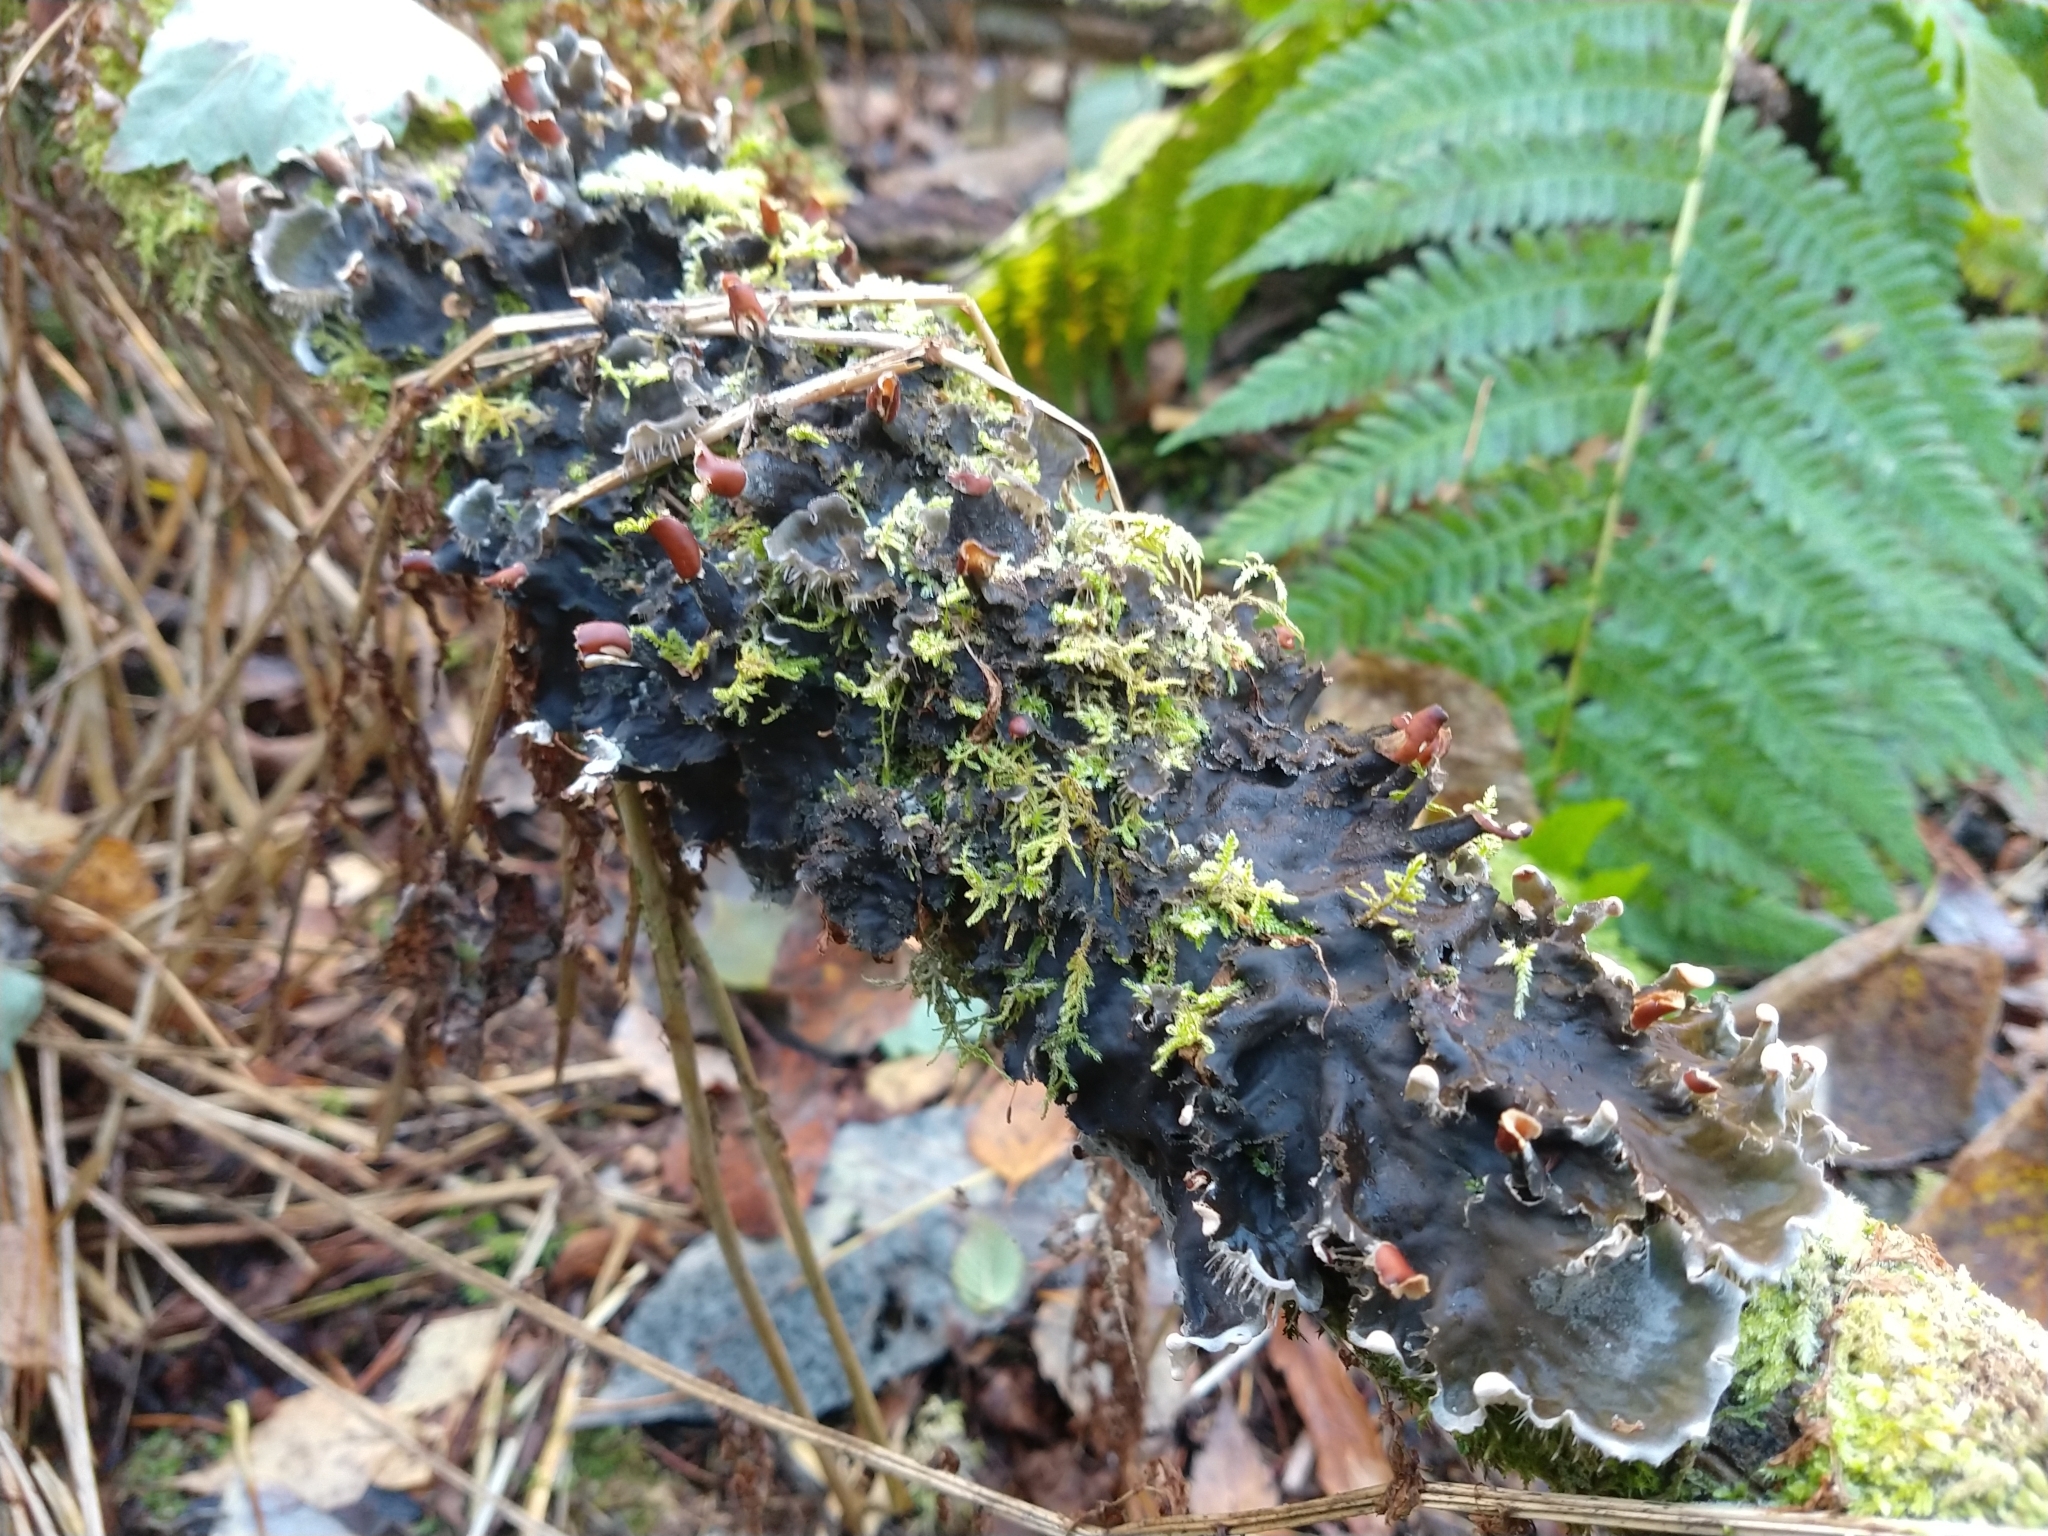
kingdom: Fungi
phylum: Ascomycota
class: Lecanoromycetes
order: Peltigerales
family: Peltigeraceae
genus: Peltigera
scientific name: Peltigera praetextata
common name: Scaly dog-lichen
